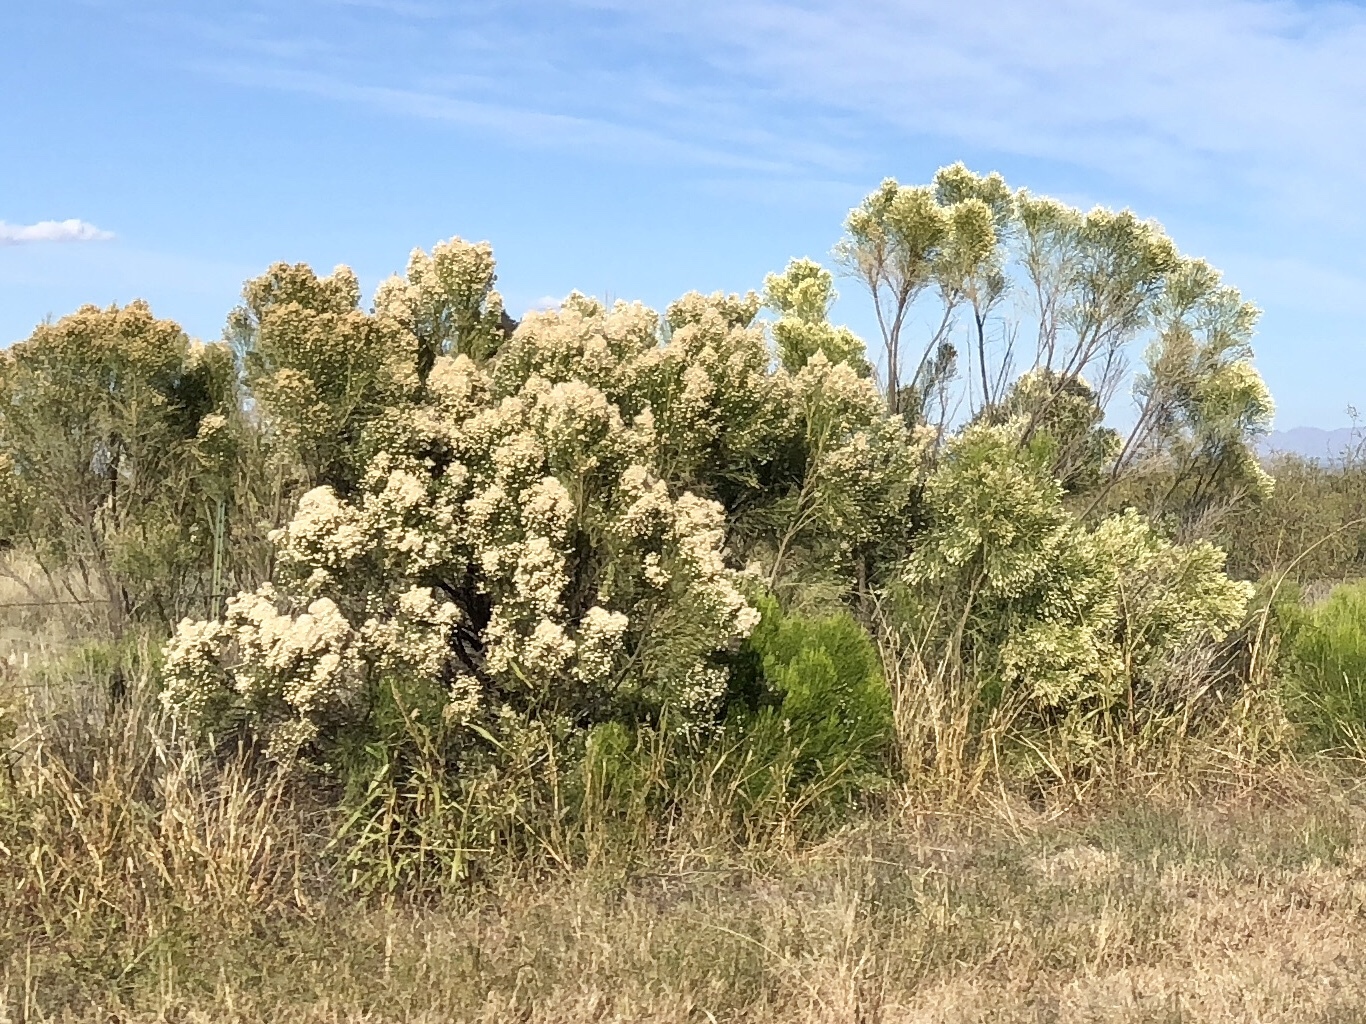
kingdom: Plantae
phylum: Tracheophyta
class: Magnoliopsida
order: Asterales
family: Asteraceae
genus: Baccharis
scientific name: Baccharis sarothroides
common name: Desert-broom
